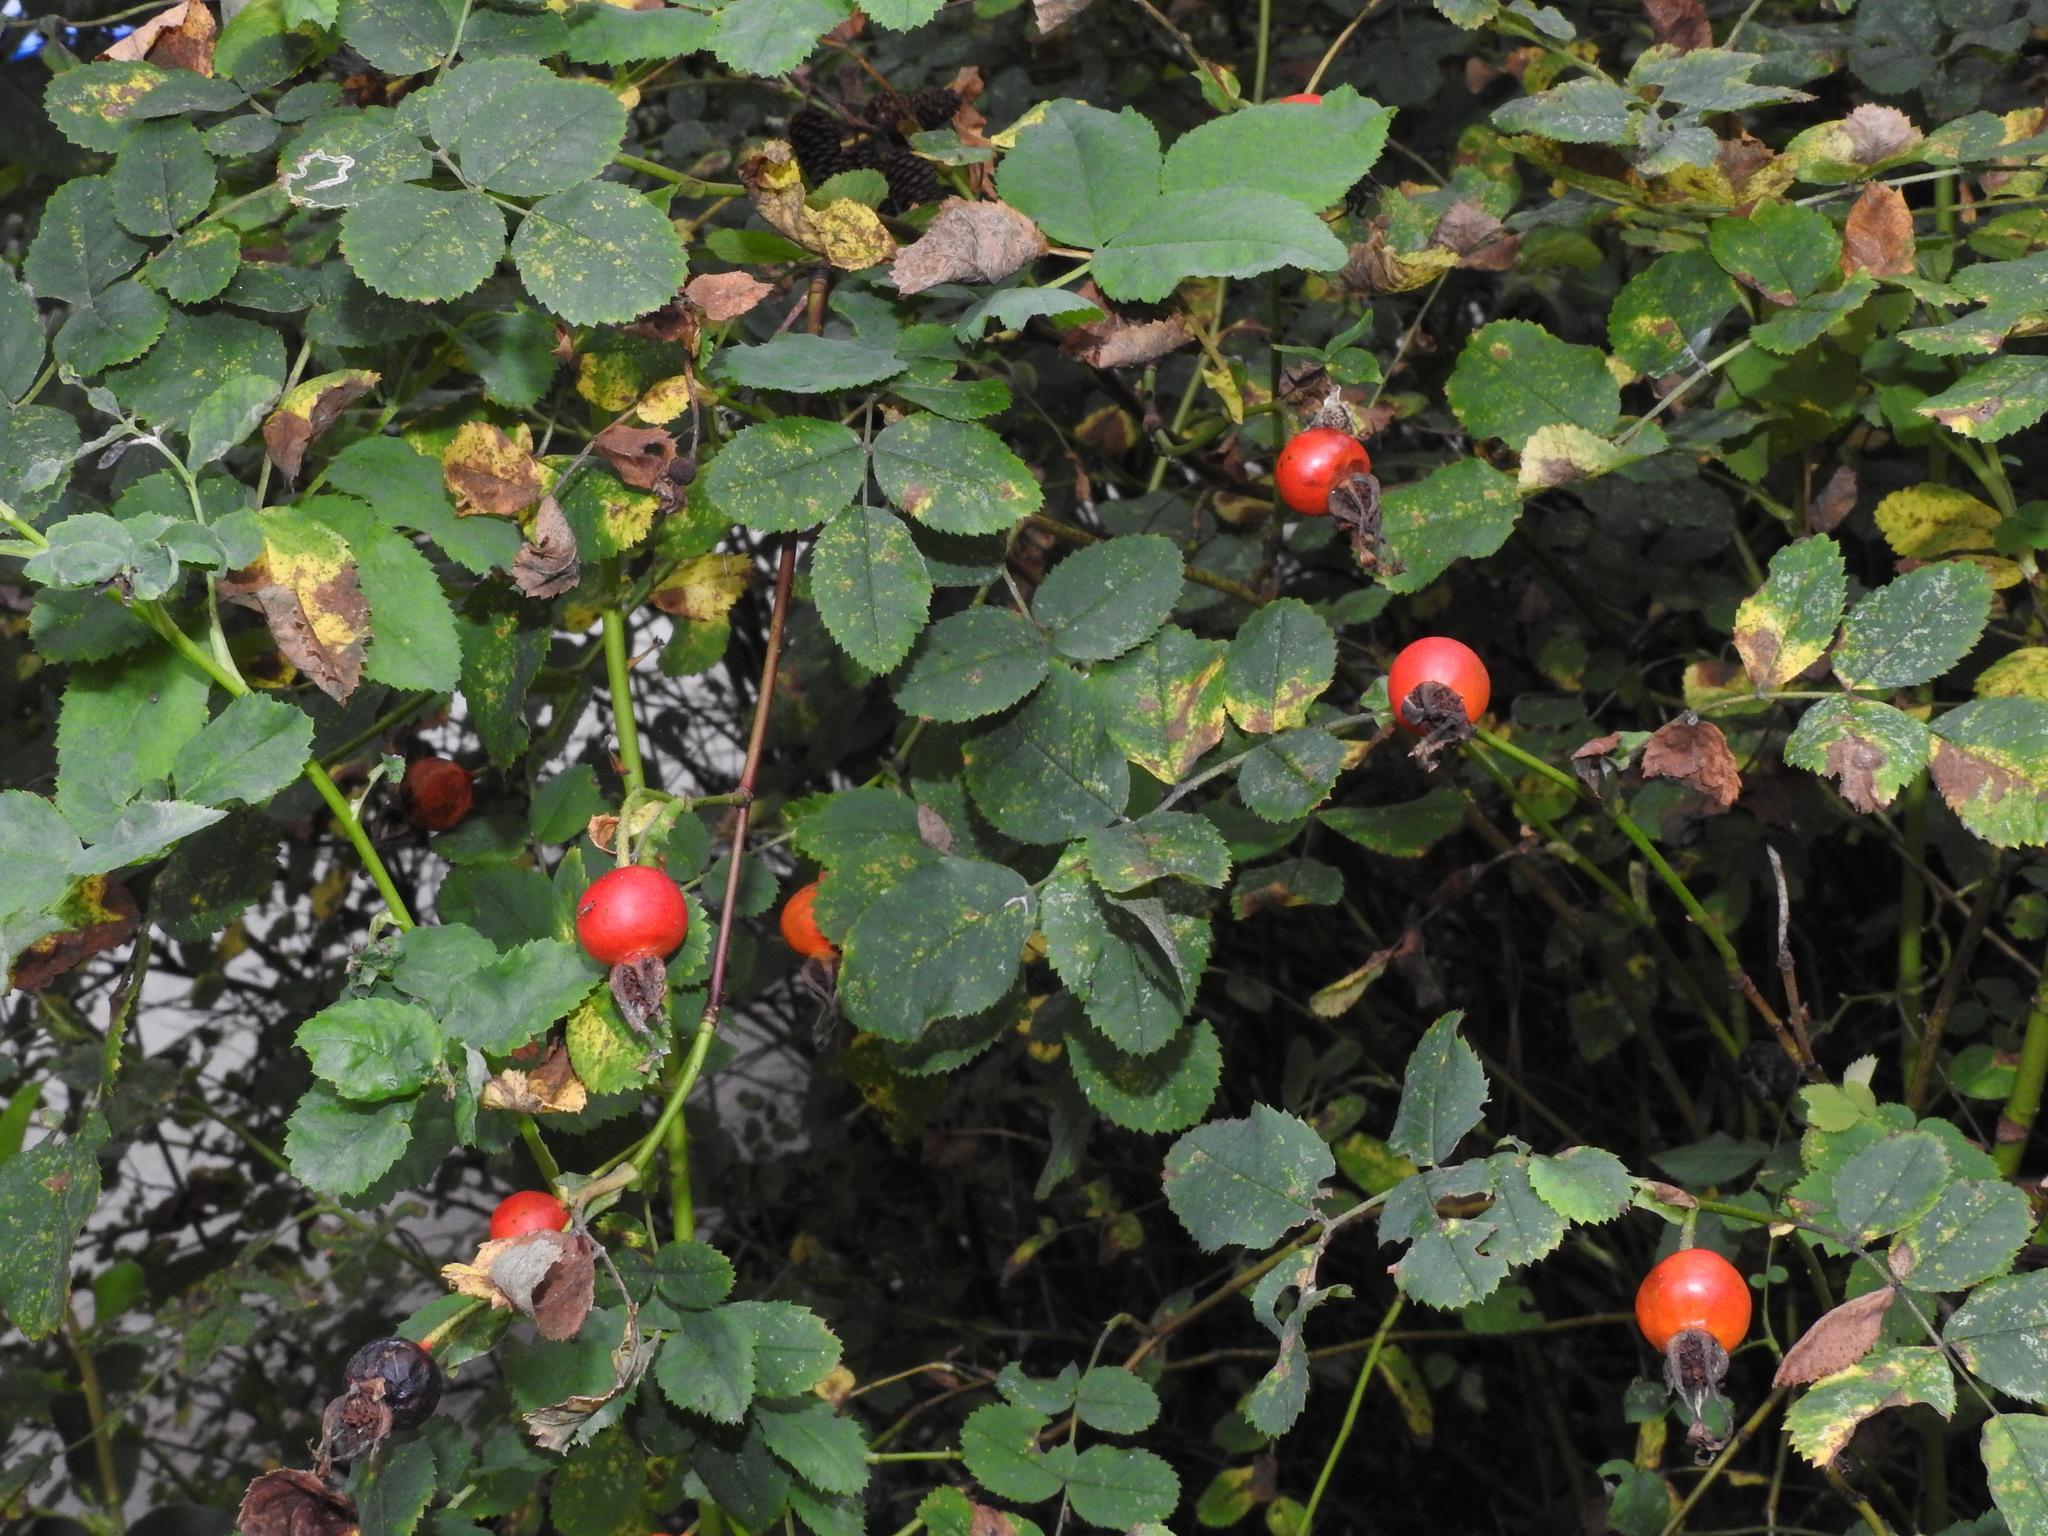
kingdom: Plantae
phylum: Tracheophyta
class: Magnoliopsida
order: Rosales
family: Rosaceae
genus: Rosa
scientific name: Rosa nutkana
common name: Nootka rose
